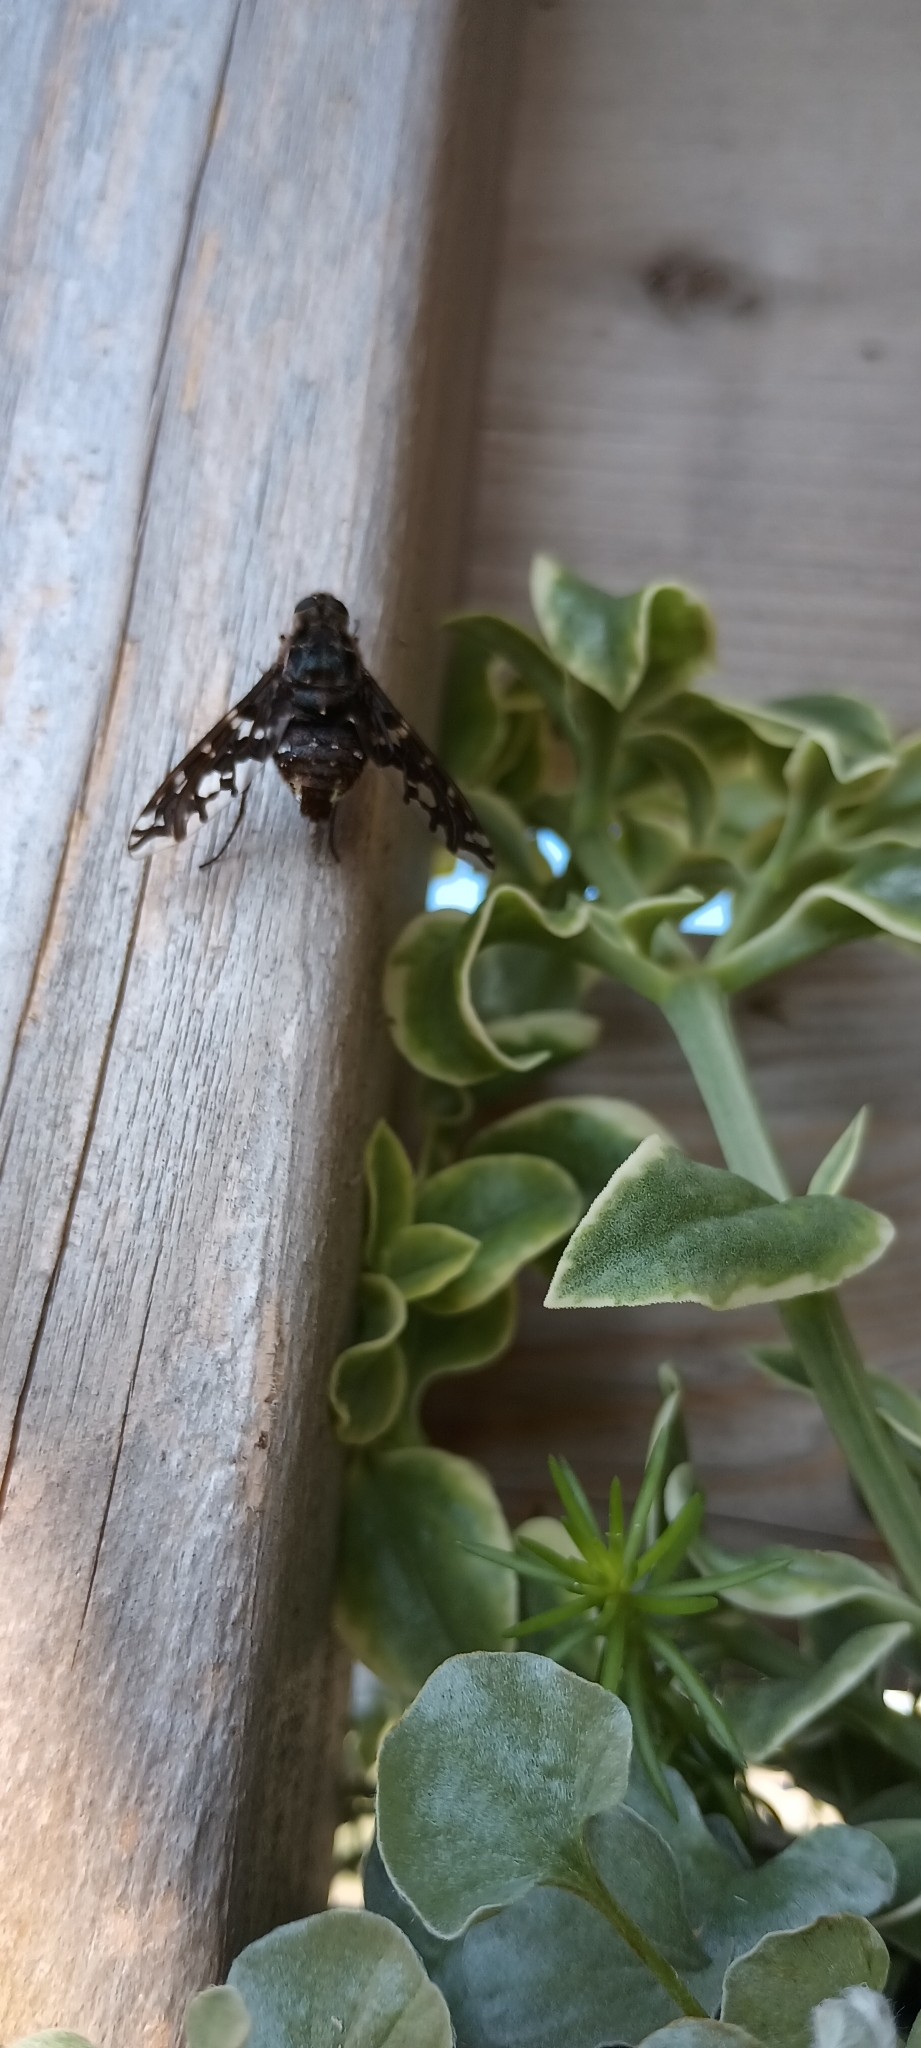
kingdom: Animalia
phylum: Arthropoda
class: Insecta
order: Diptera
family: Bombyliidae
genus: Xenox
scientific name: Xenox tigrinus
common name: Tiger bee fly
